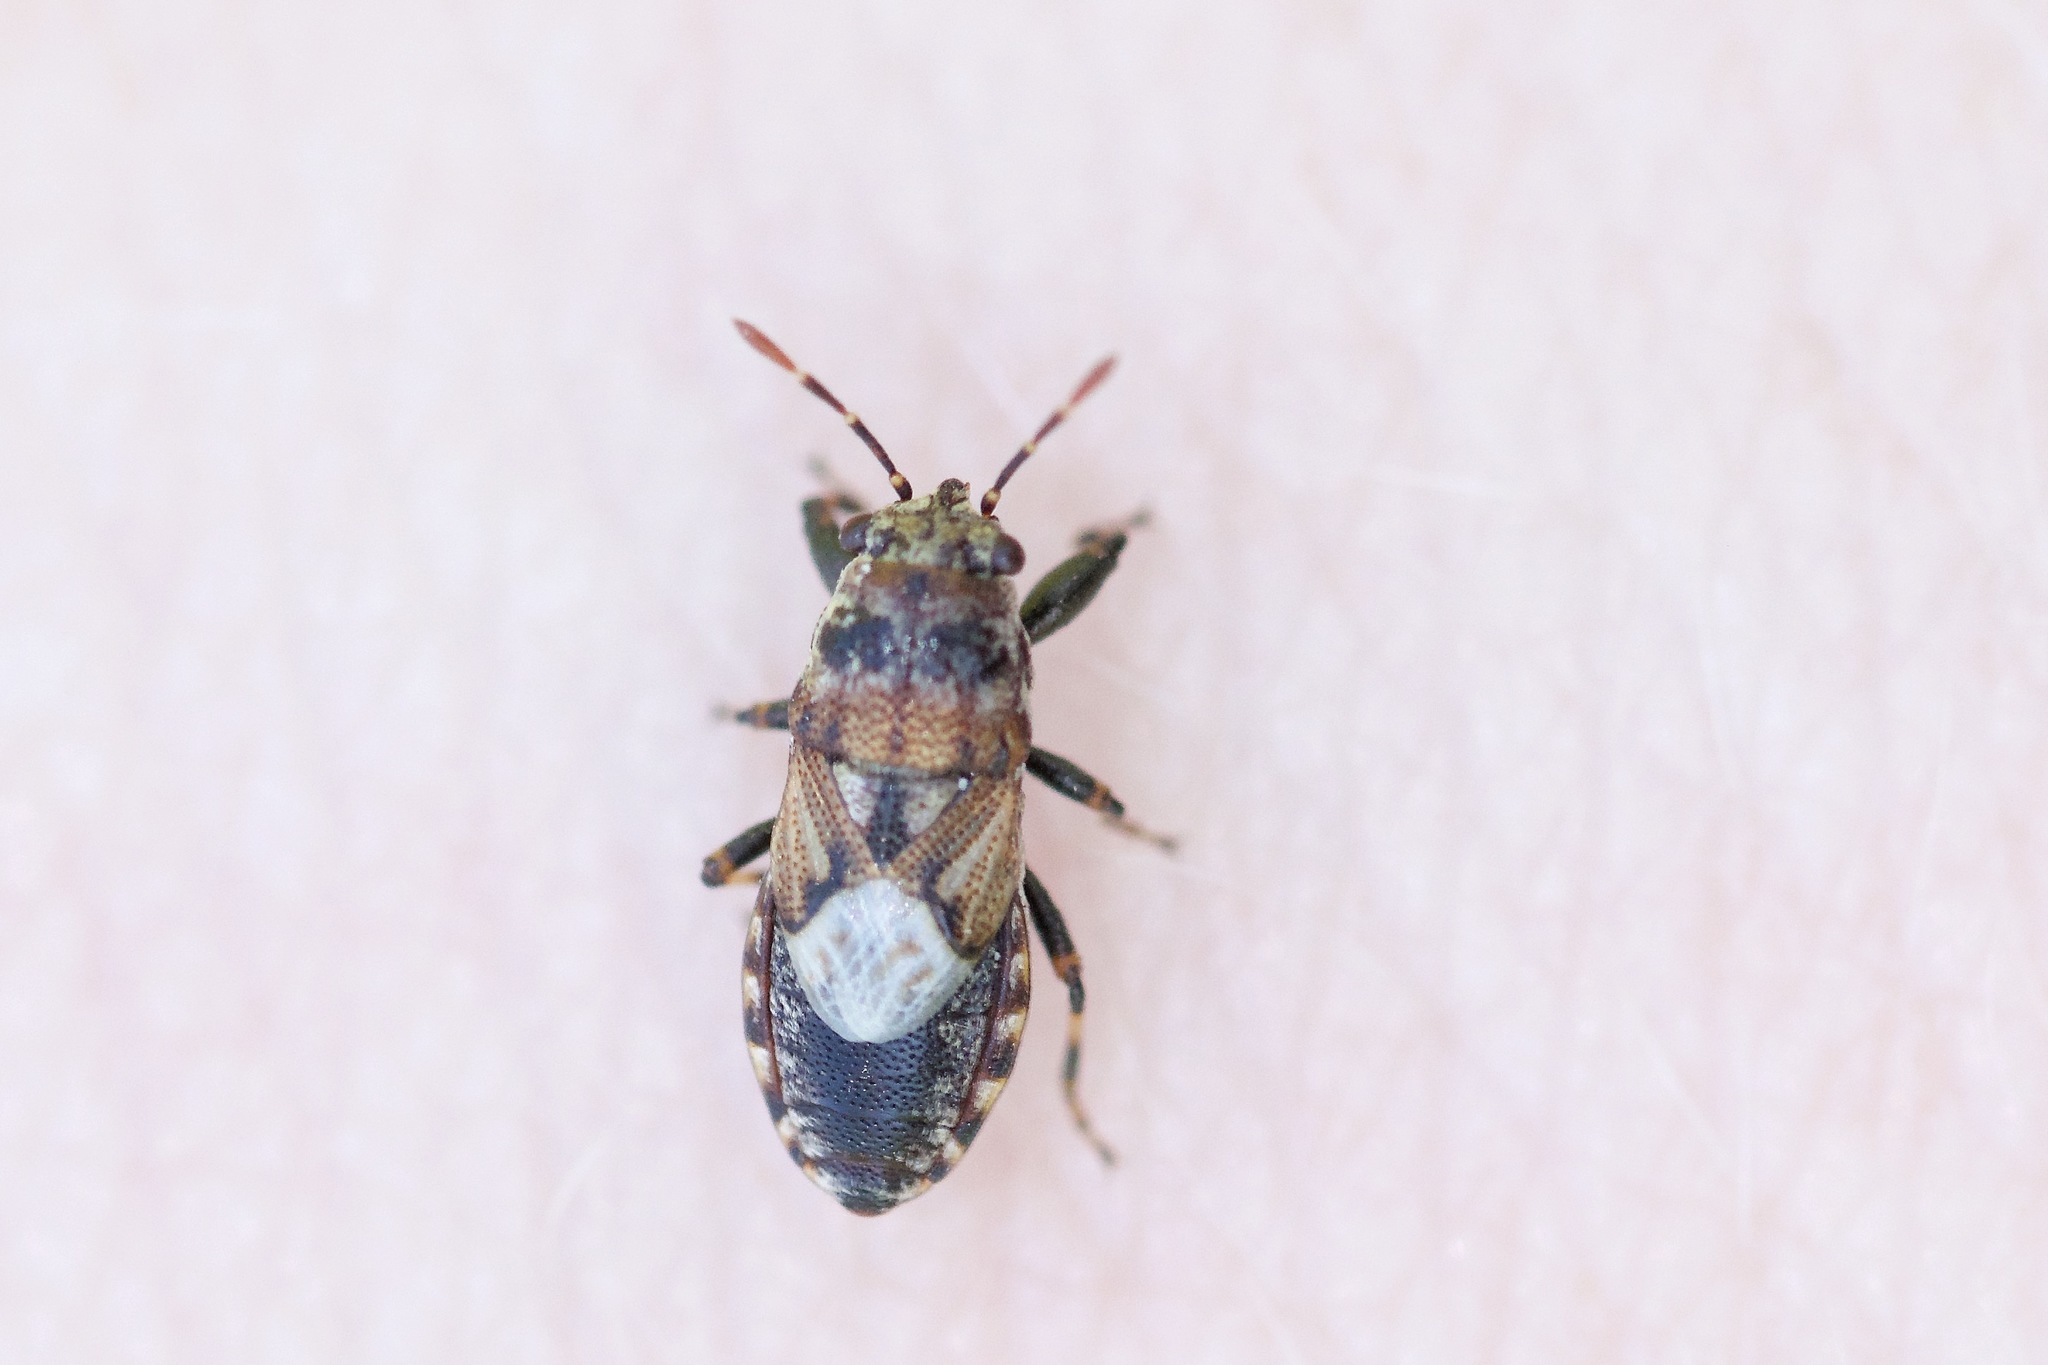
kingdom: Animalia
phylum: Arthropoda
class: Insecta
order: Hemiptera
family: Pachygronthidae
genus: Phlegyas
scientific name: Phlegyas abbreviatus
